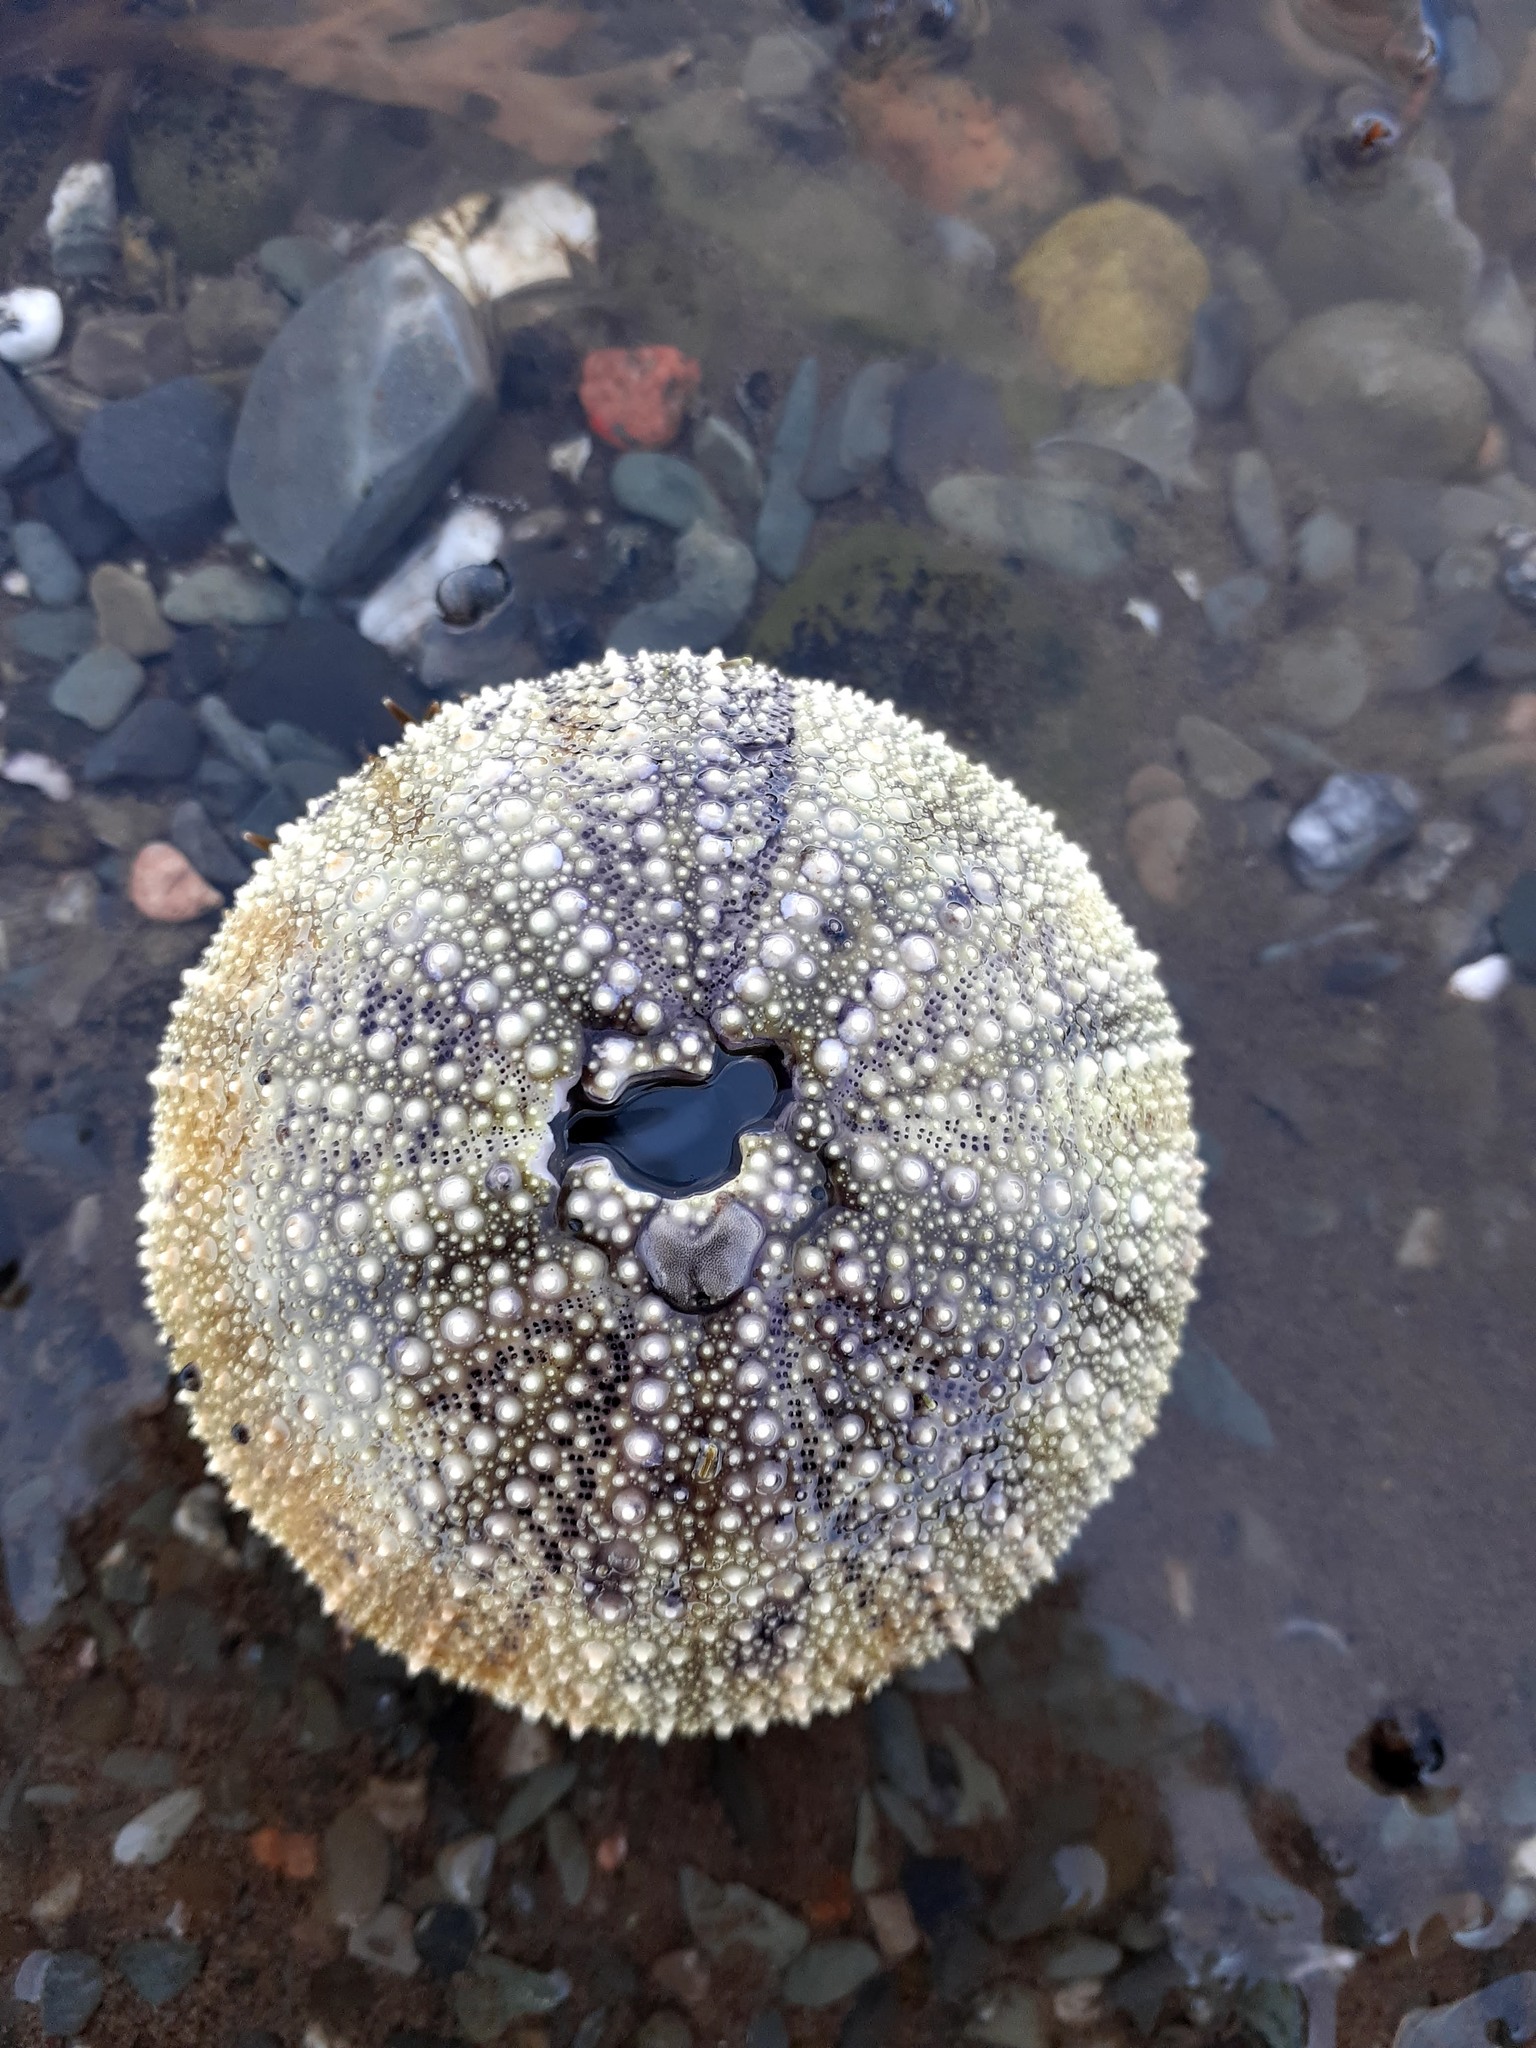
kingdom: Animalia
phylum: Echinodermata
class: Echinoidea
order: Camarodonta
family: Strongylocentrotidae
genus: Strongylocentrotus
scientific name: Strongylocentrotus droebachiensis
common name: Northern sea urchin
